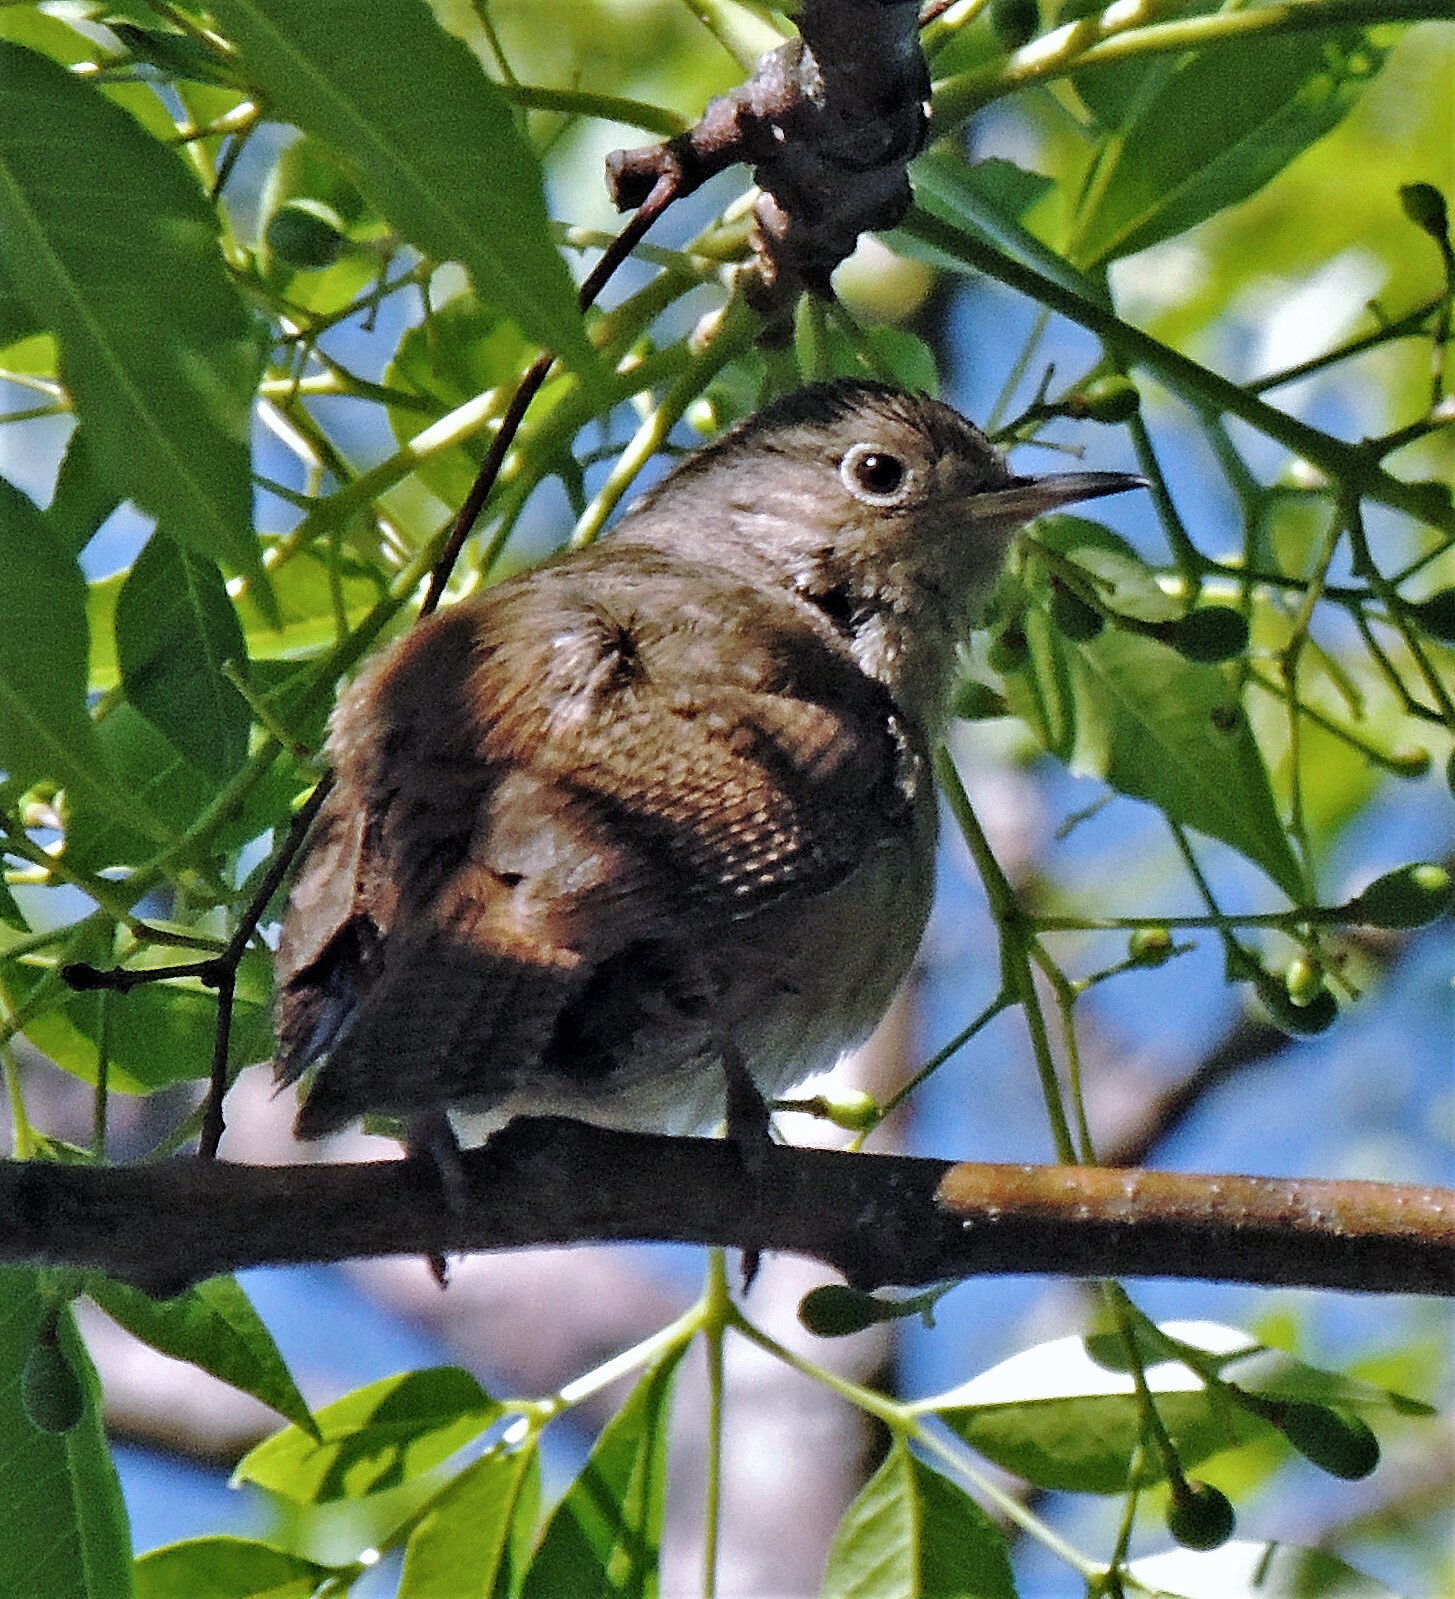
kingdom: Animalia
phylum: Chordata
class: Aves
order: Passeriformes
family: Troglodytidae
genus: Troglodytes
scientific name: Troglodytes aedon
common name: House wren
